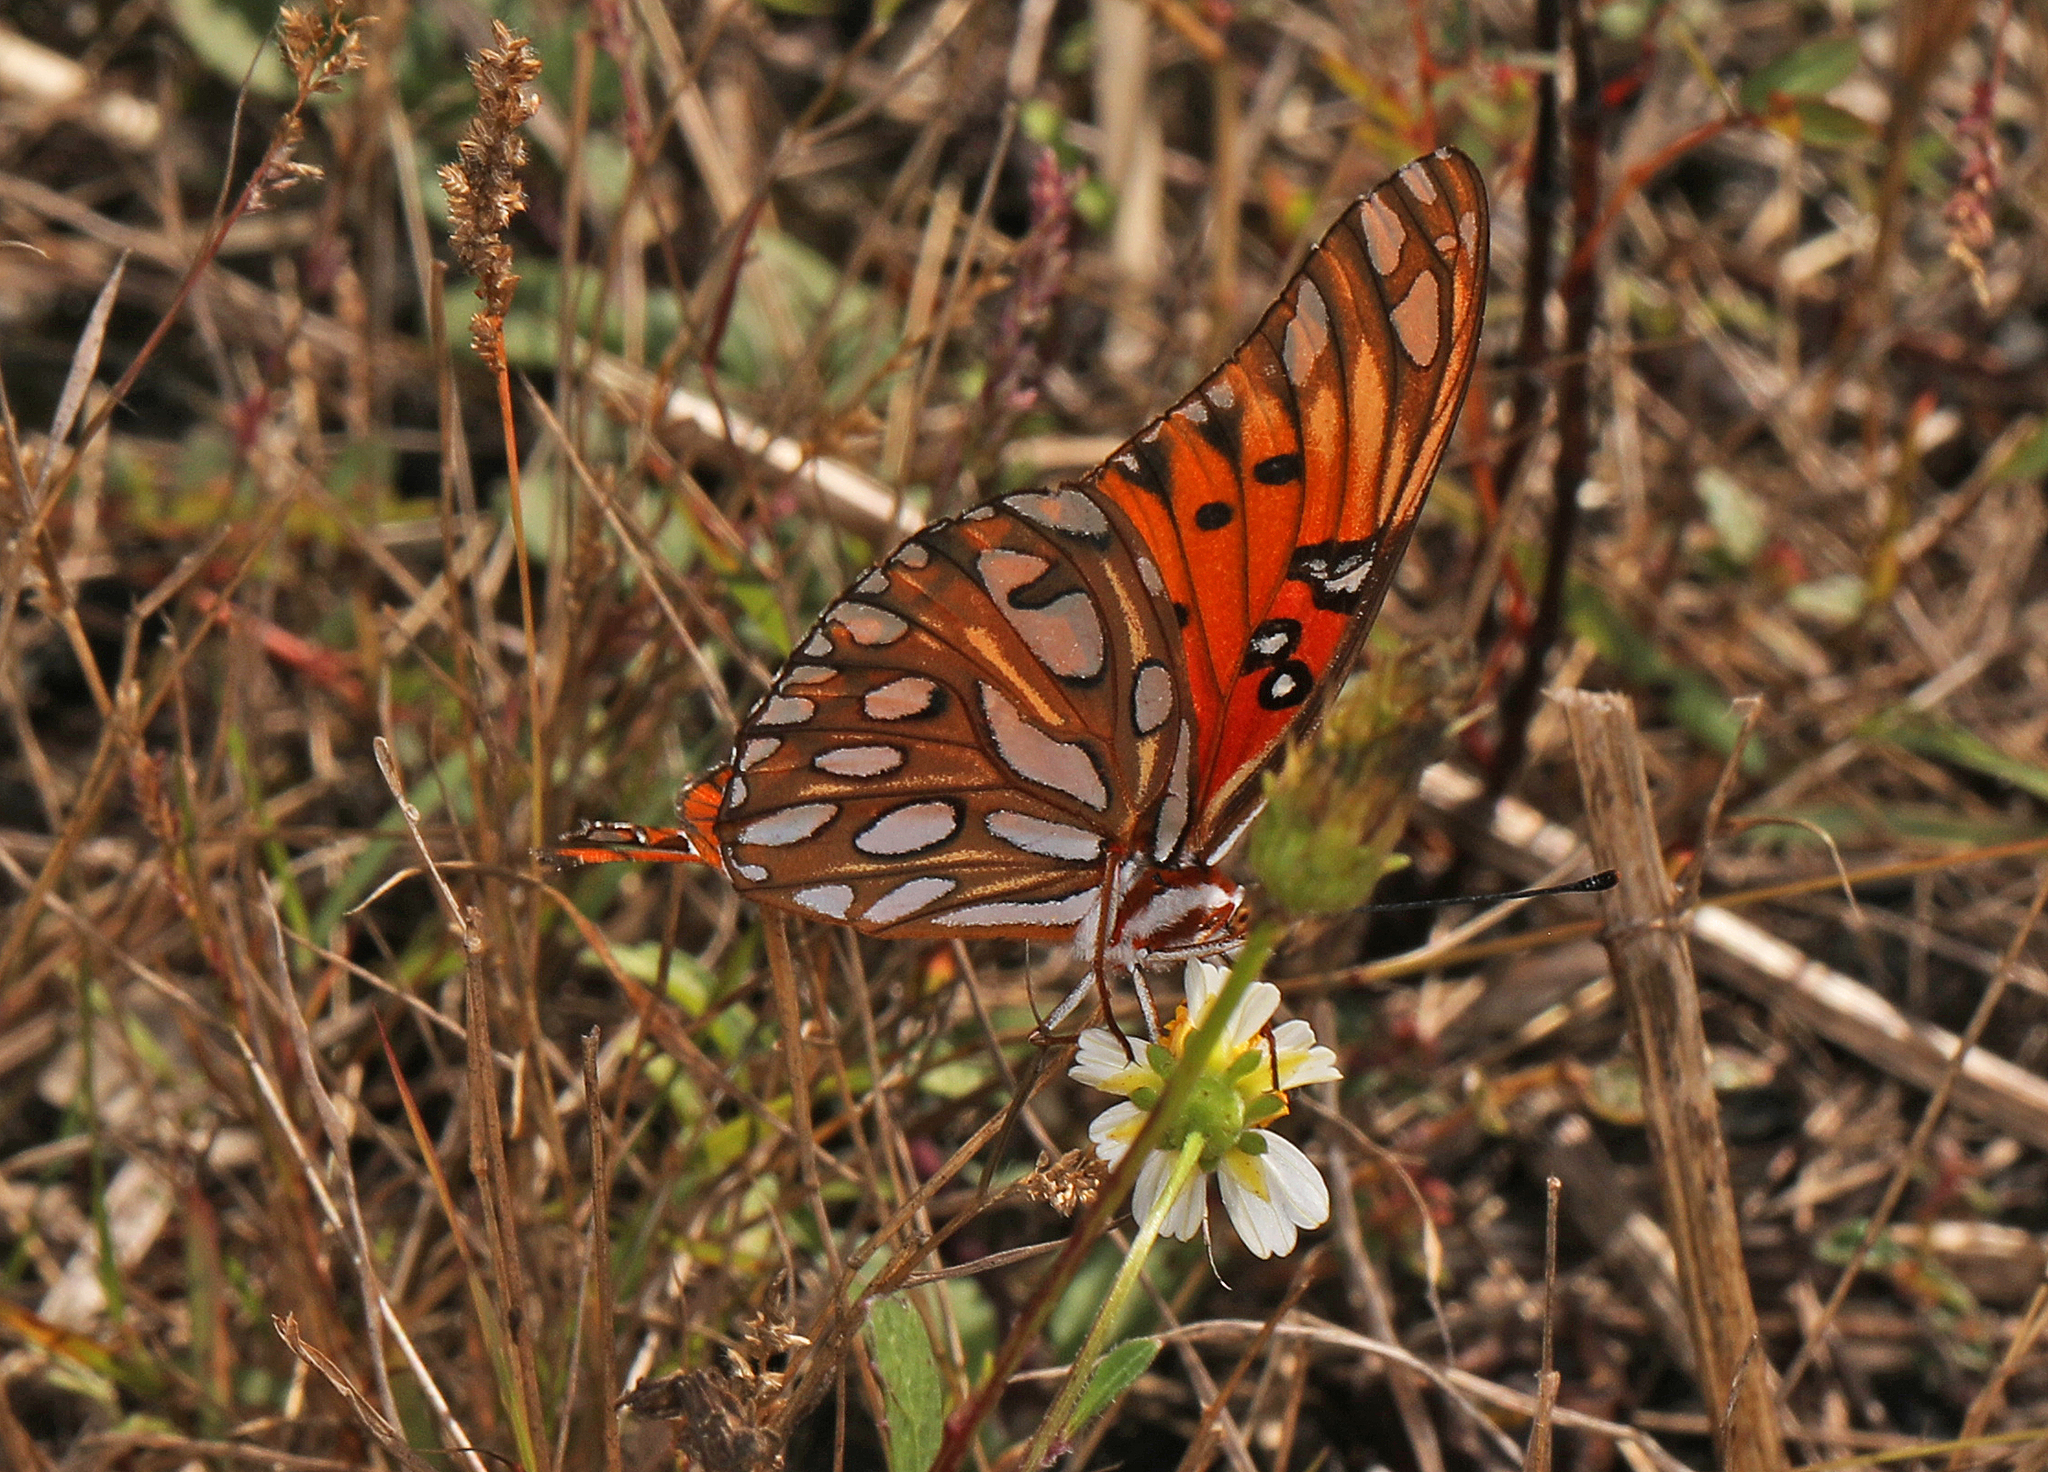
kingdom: Animalia
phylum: Arthropoda
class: Insecta
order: Lepidoptera
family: Nymphalidae
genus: Dione
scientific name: Dione vanillae
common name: Gulf fritillary
